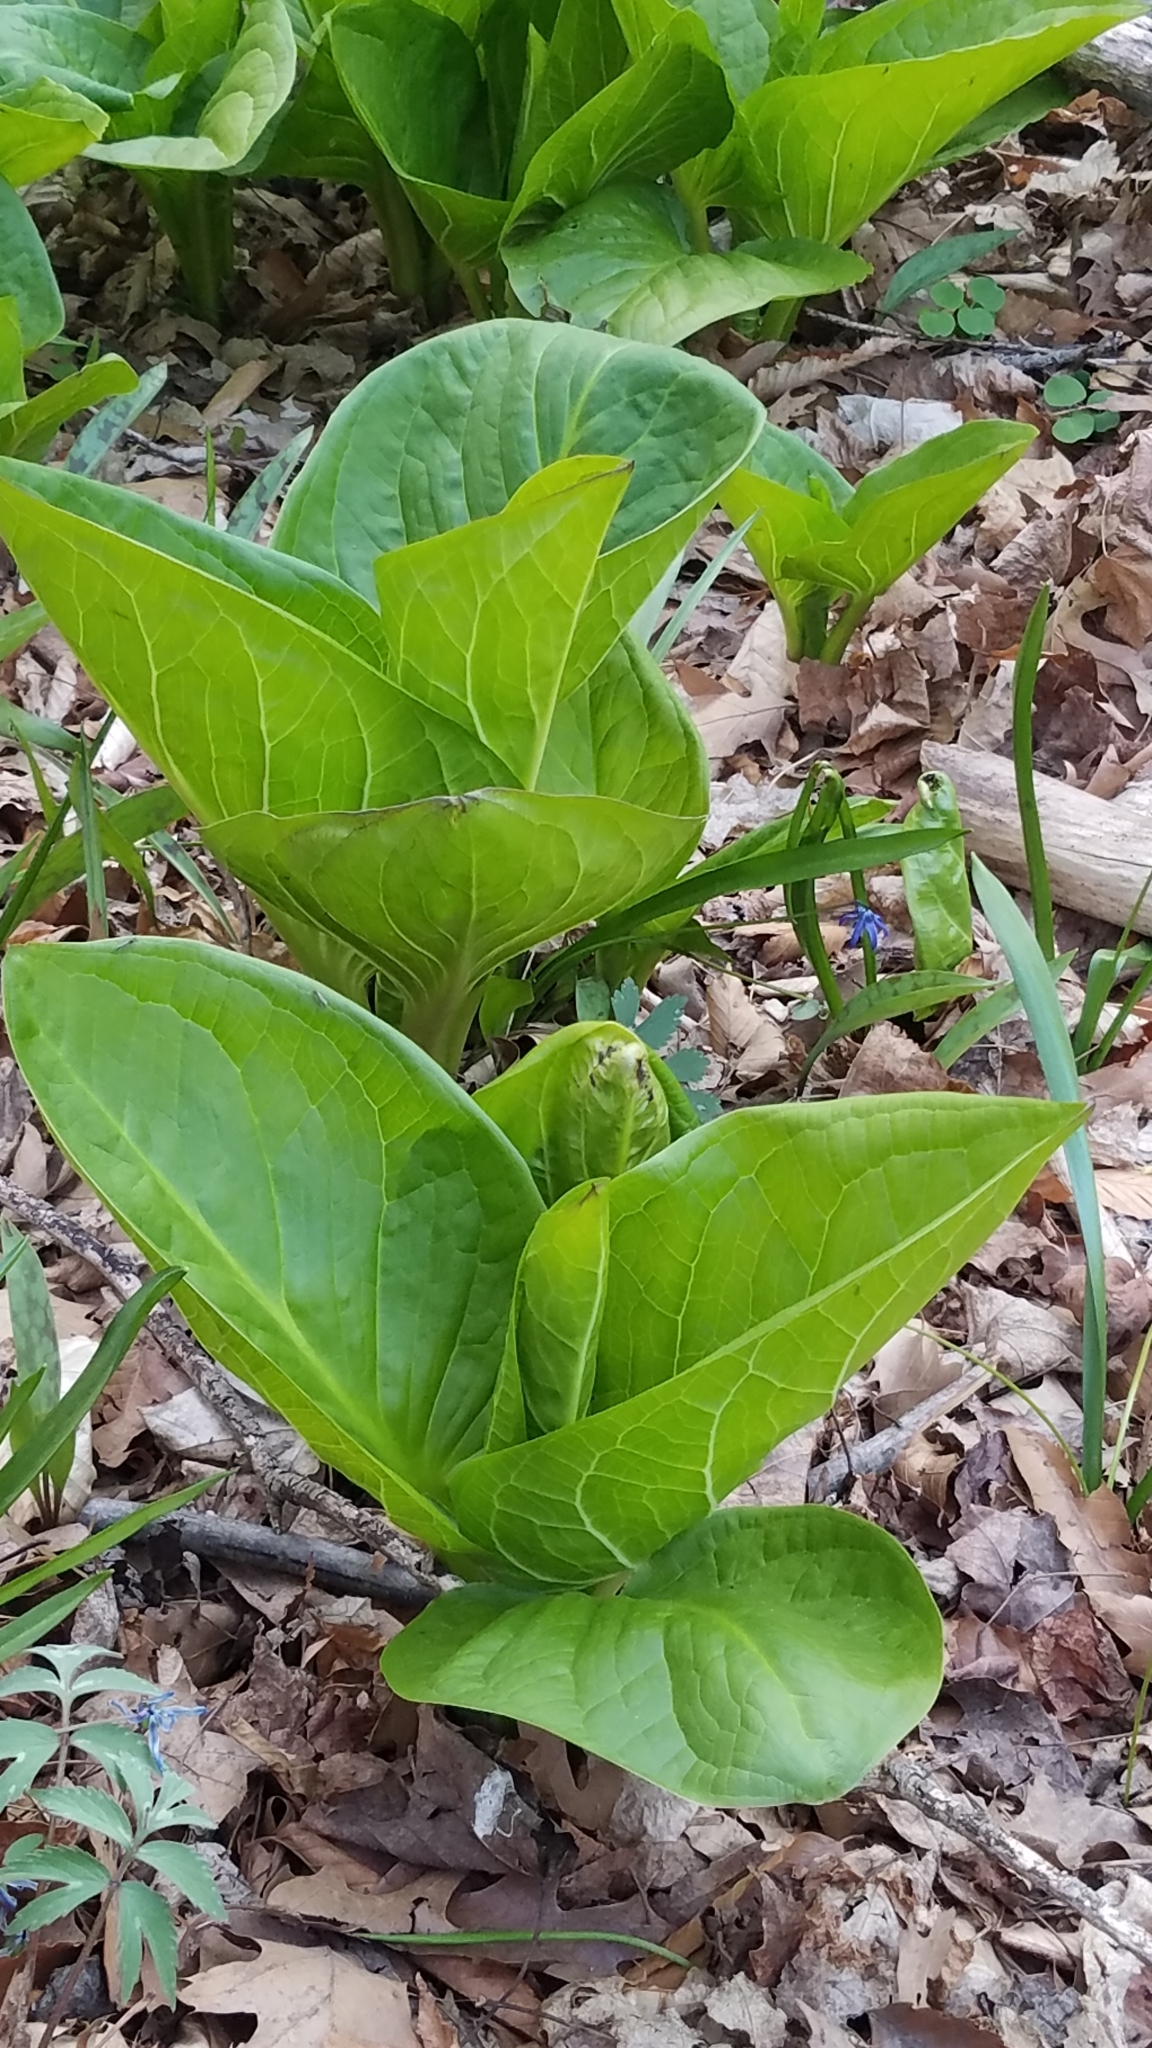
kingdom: Plantae
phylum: Tracheophyta
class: Liliopsida
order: Alismatales
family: Araceae
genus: Symplocarpus
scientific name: Symplocarpus foetidus
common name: Eastern skunk cabbage
